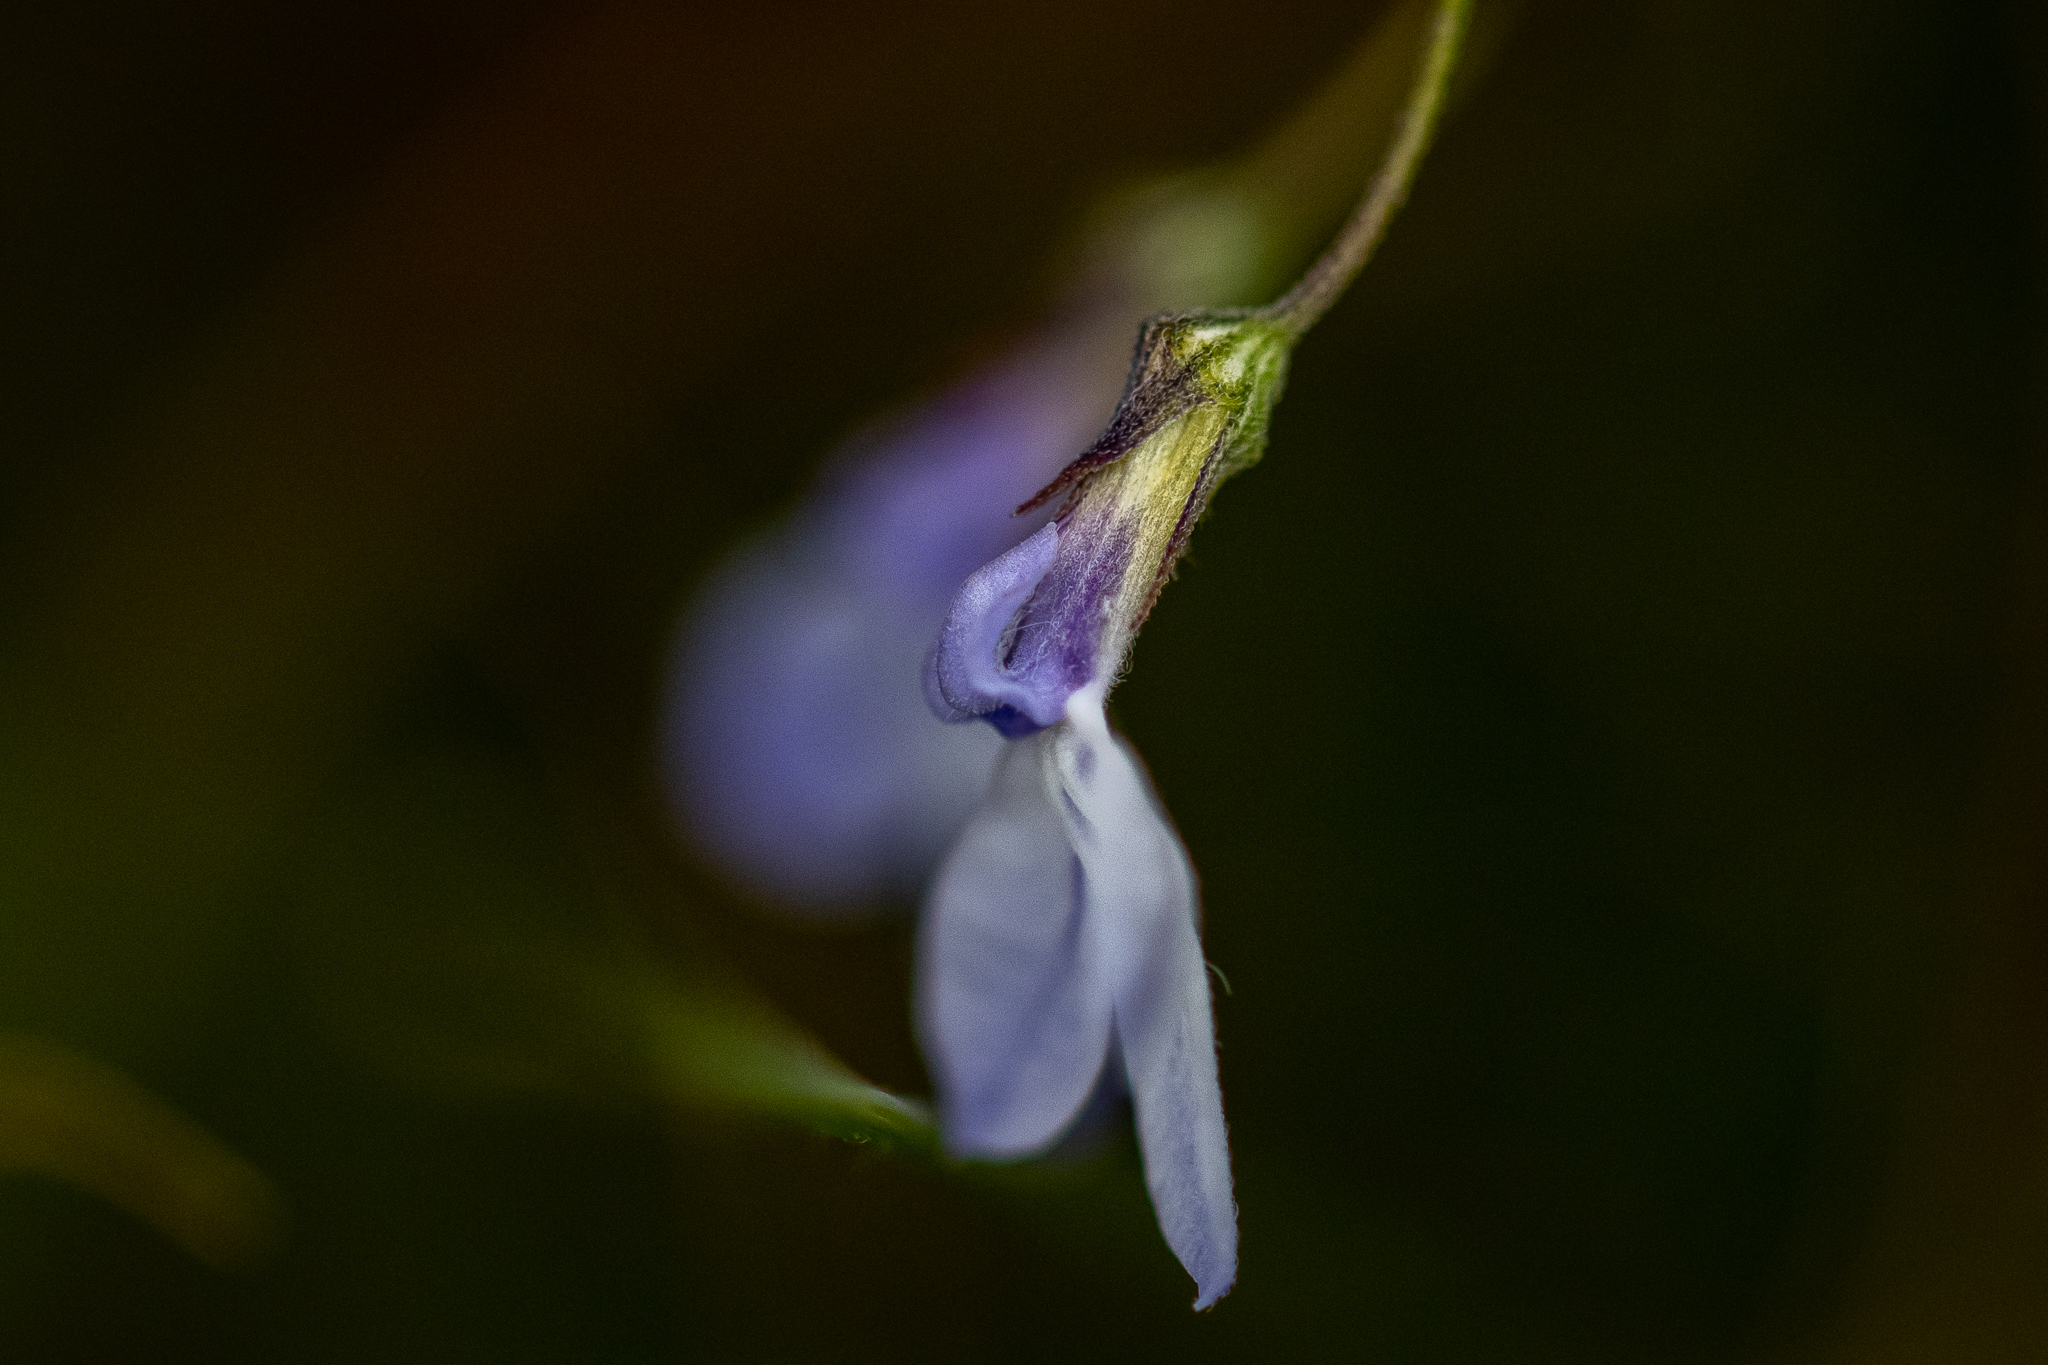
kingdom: Plantae
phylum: Tracheophyta
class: Magnoliopsida
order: Asterales
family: Campanulaceae
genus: Lobelia
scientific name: Lobelia setacea
